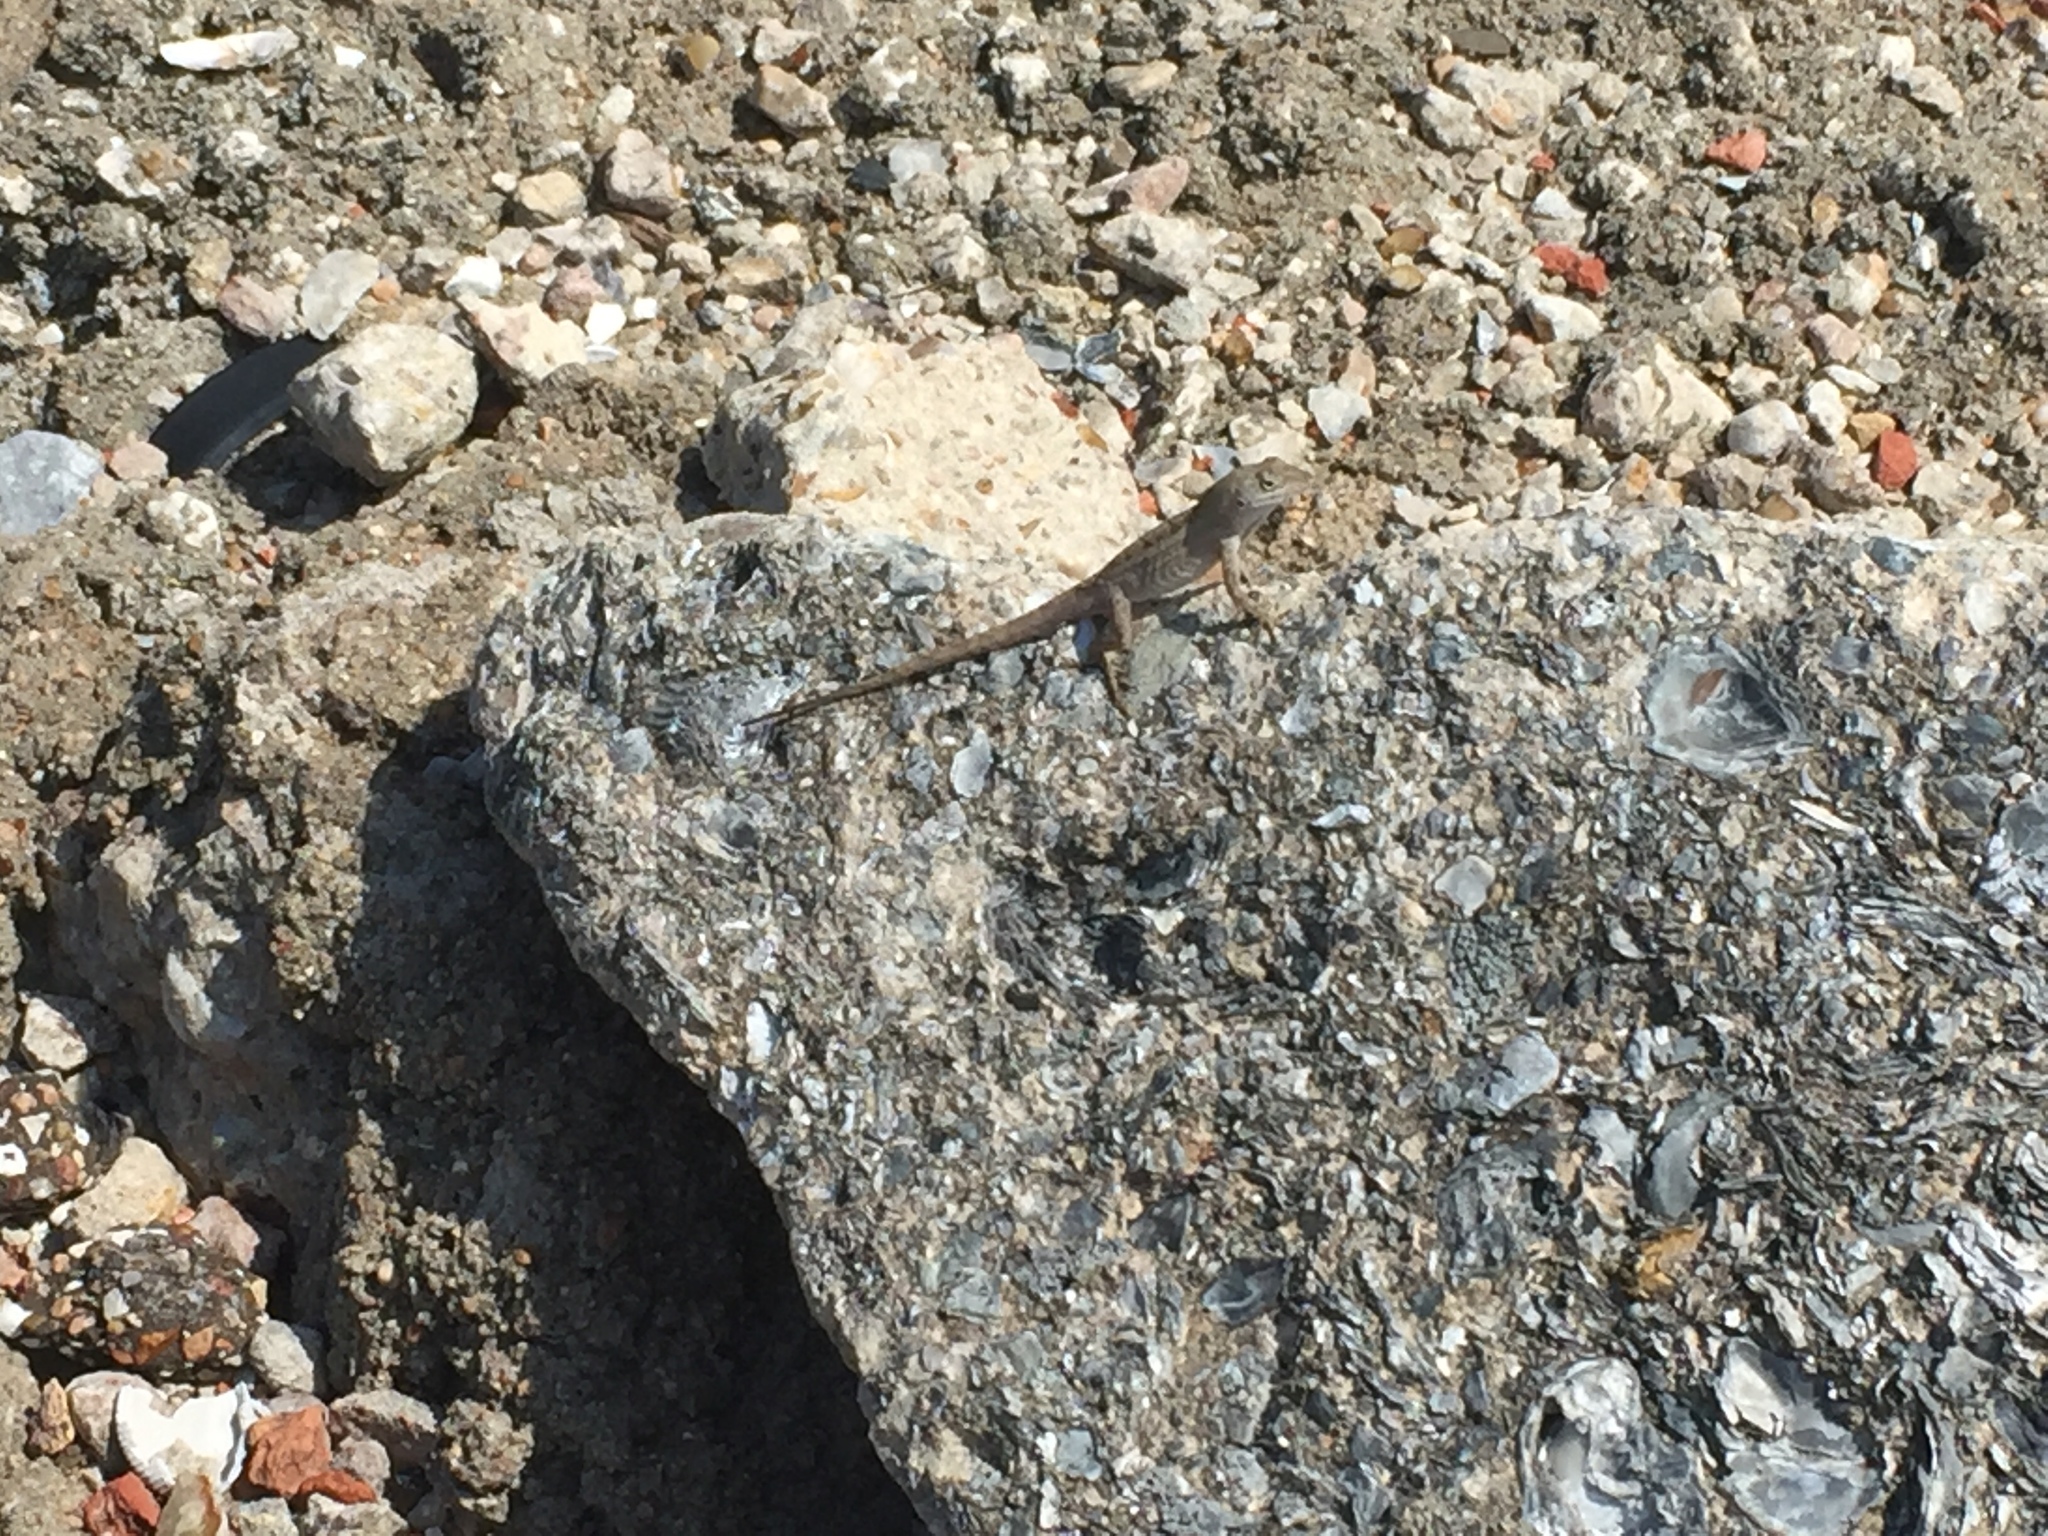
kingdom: Animalia
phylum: Chordata
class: Squamata
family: Dactyloidae
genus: Anolis
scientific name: Anolis sagrei
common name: Brown anole
